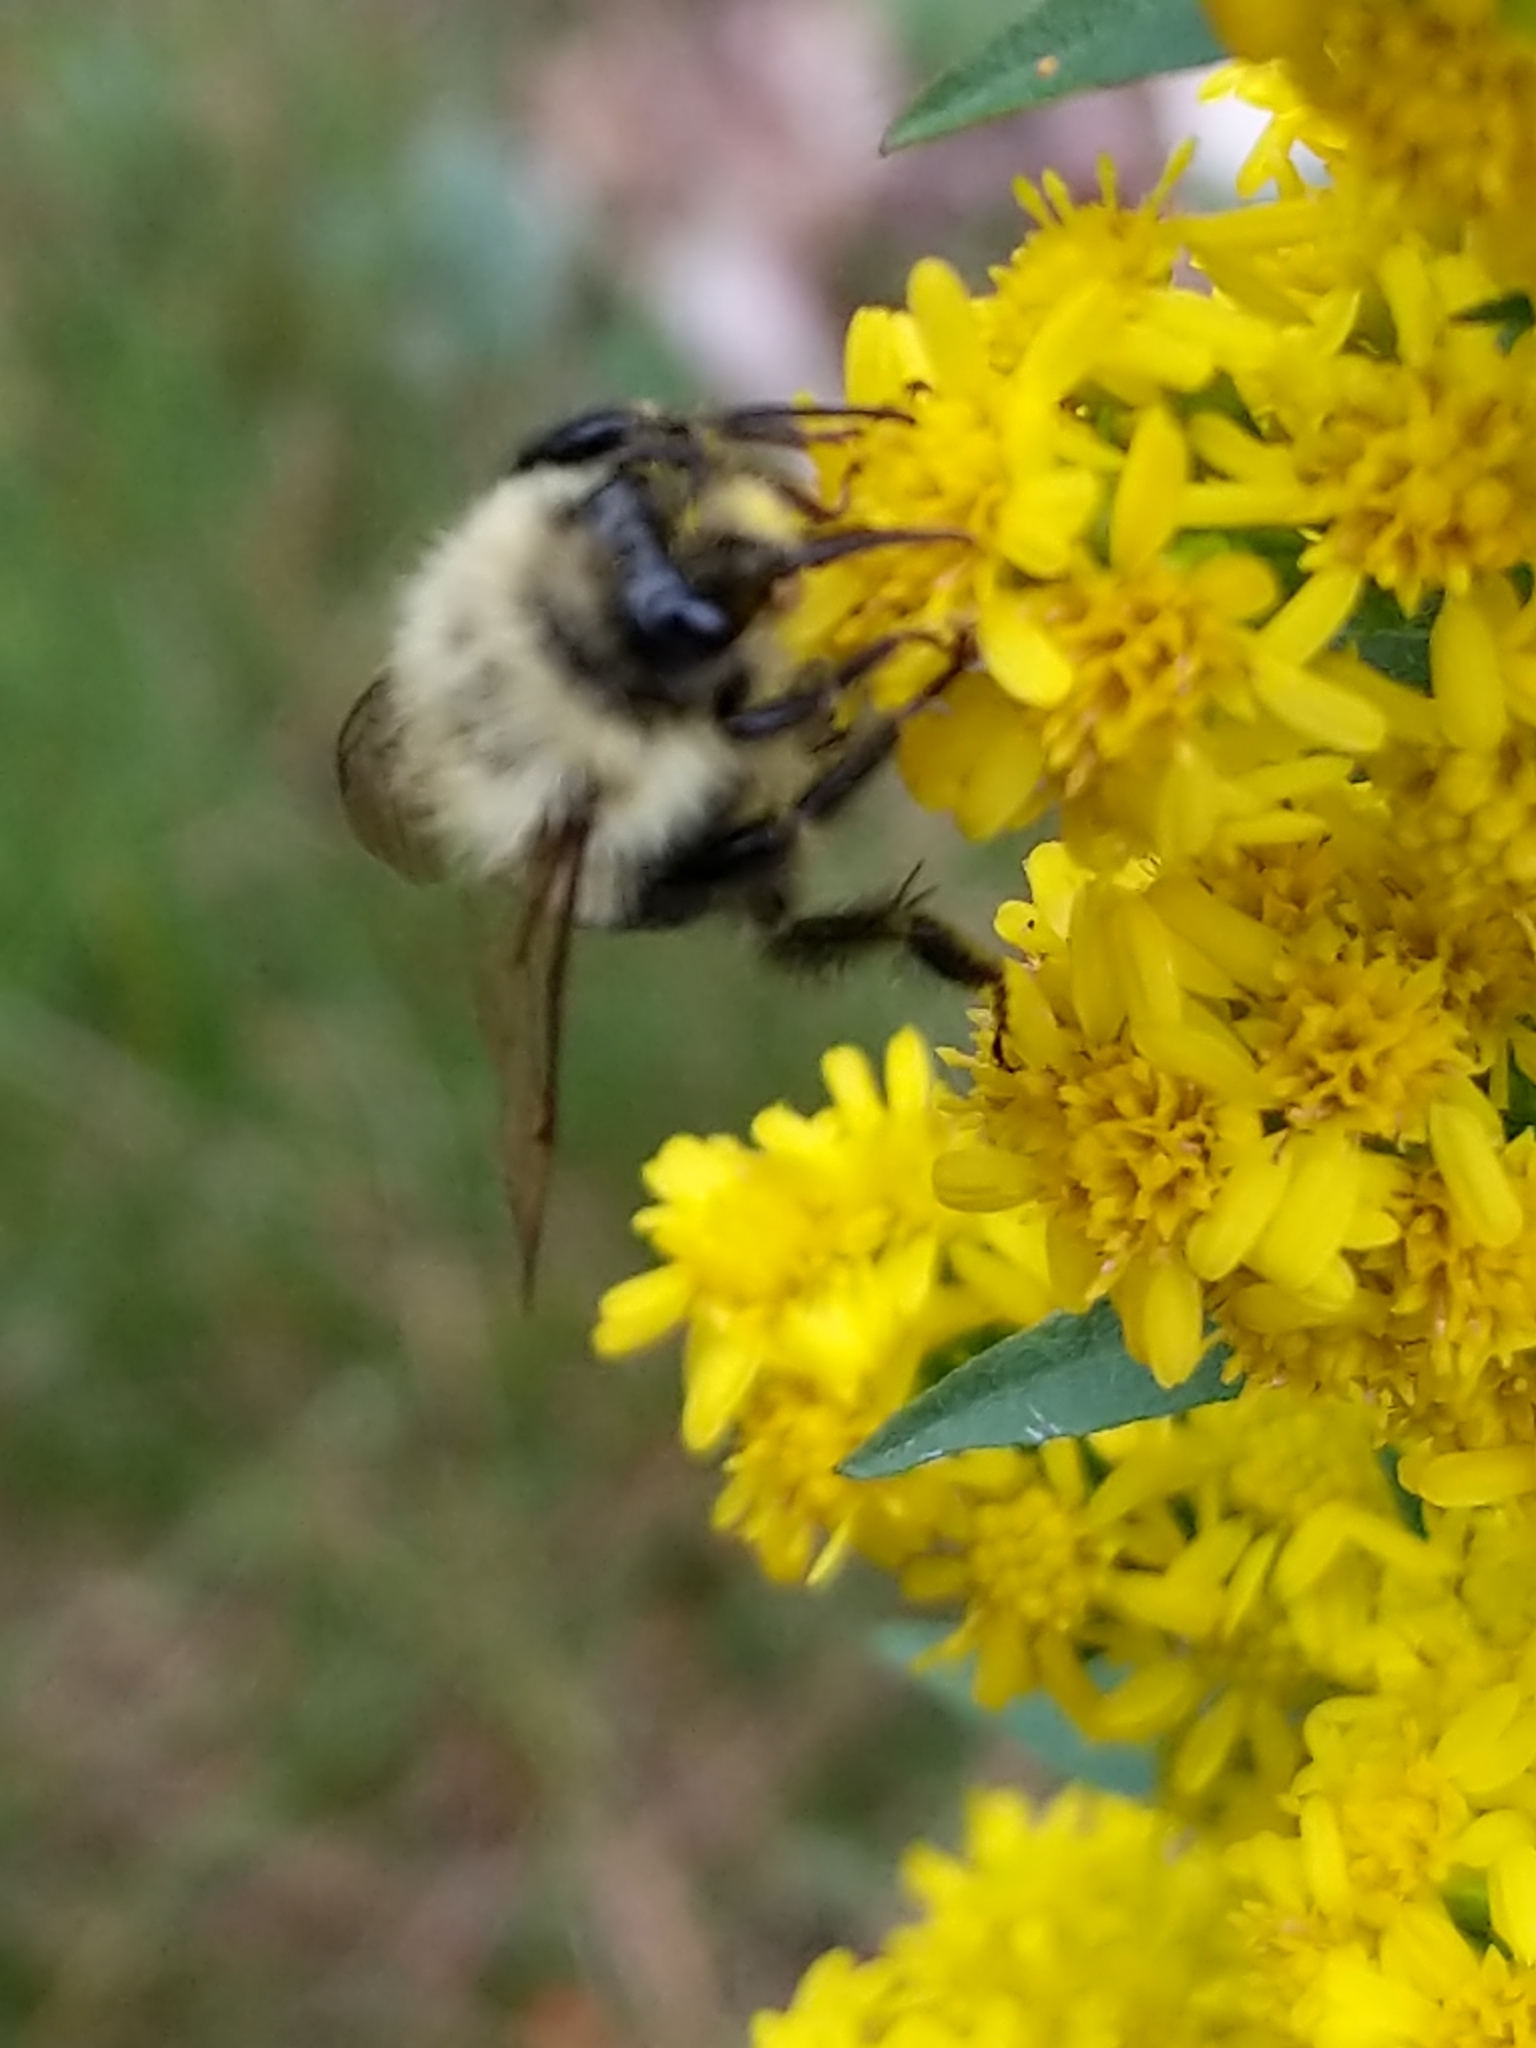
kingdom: Animalia
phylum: Arthropoda
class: Insecta
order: Hymenoptera
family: Apidae
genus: Bombus
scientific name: Bombus impatiens
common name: Common eastern bumble bee
